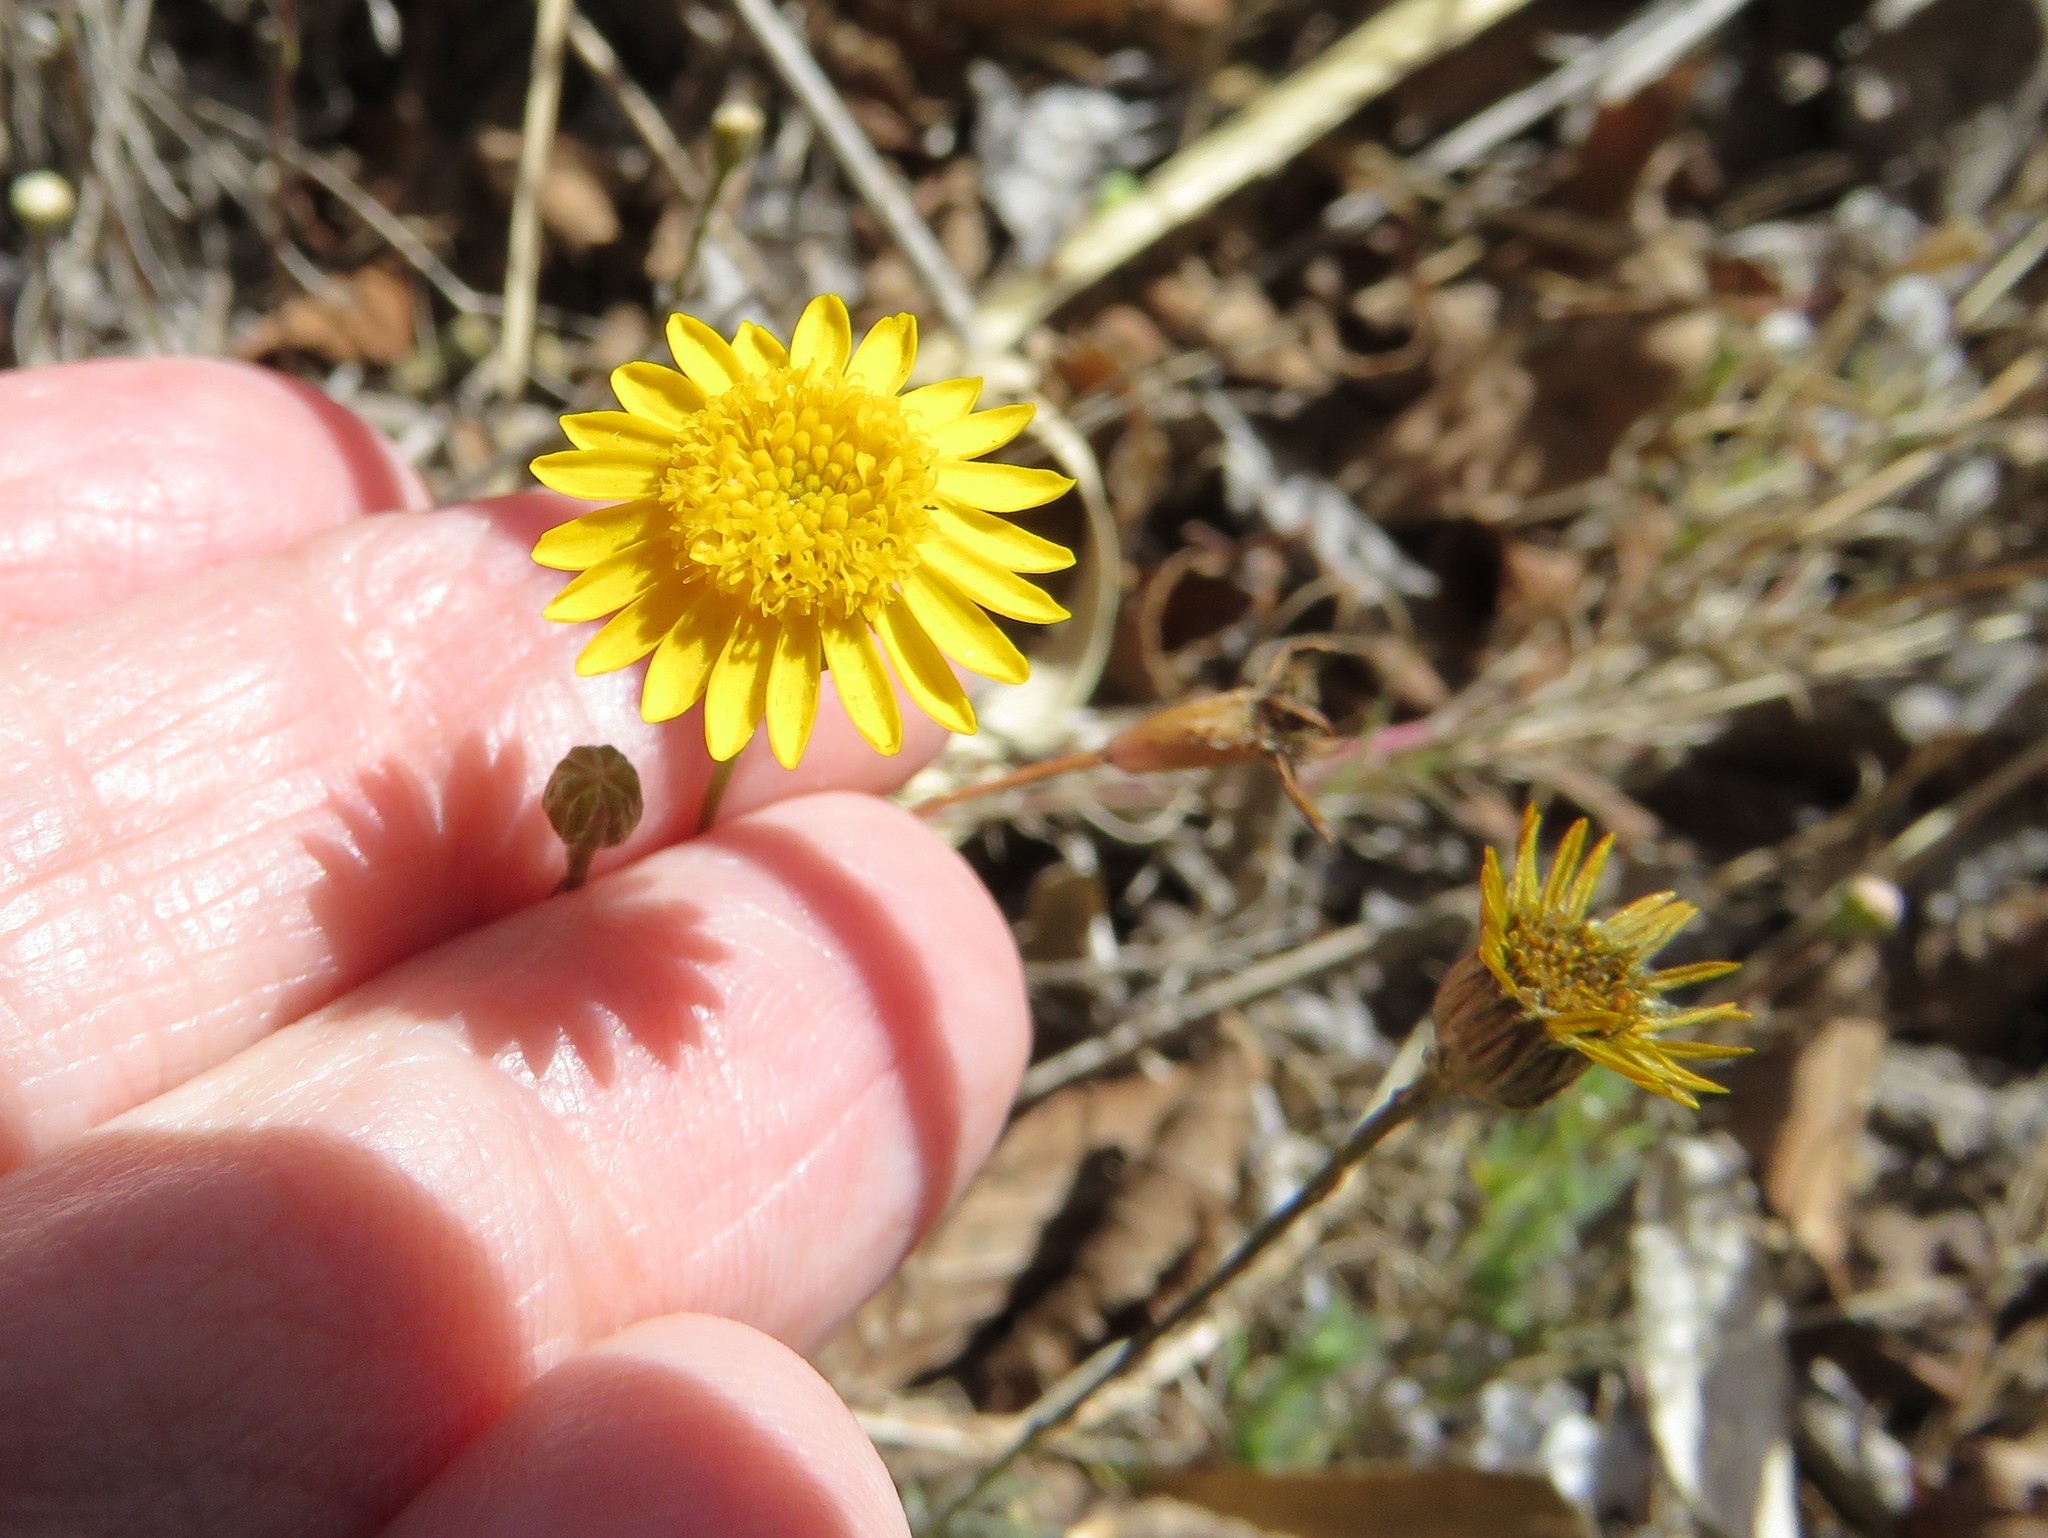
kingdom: Plantae
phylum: Tracheophyta
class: Magnoliopsida
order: Asterales
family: Asteraceae
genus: Thymophylla
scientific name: Thymophylla pentachaeta
